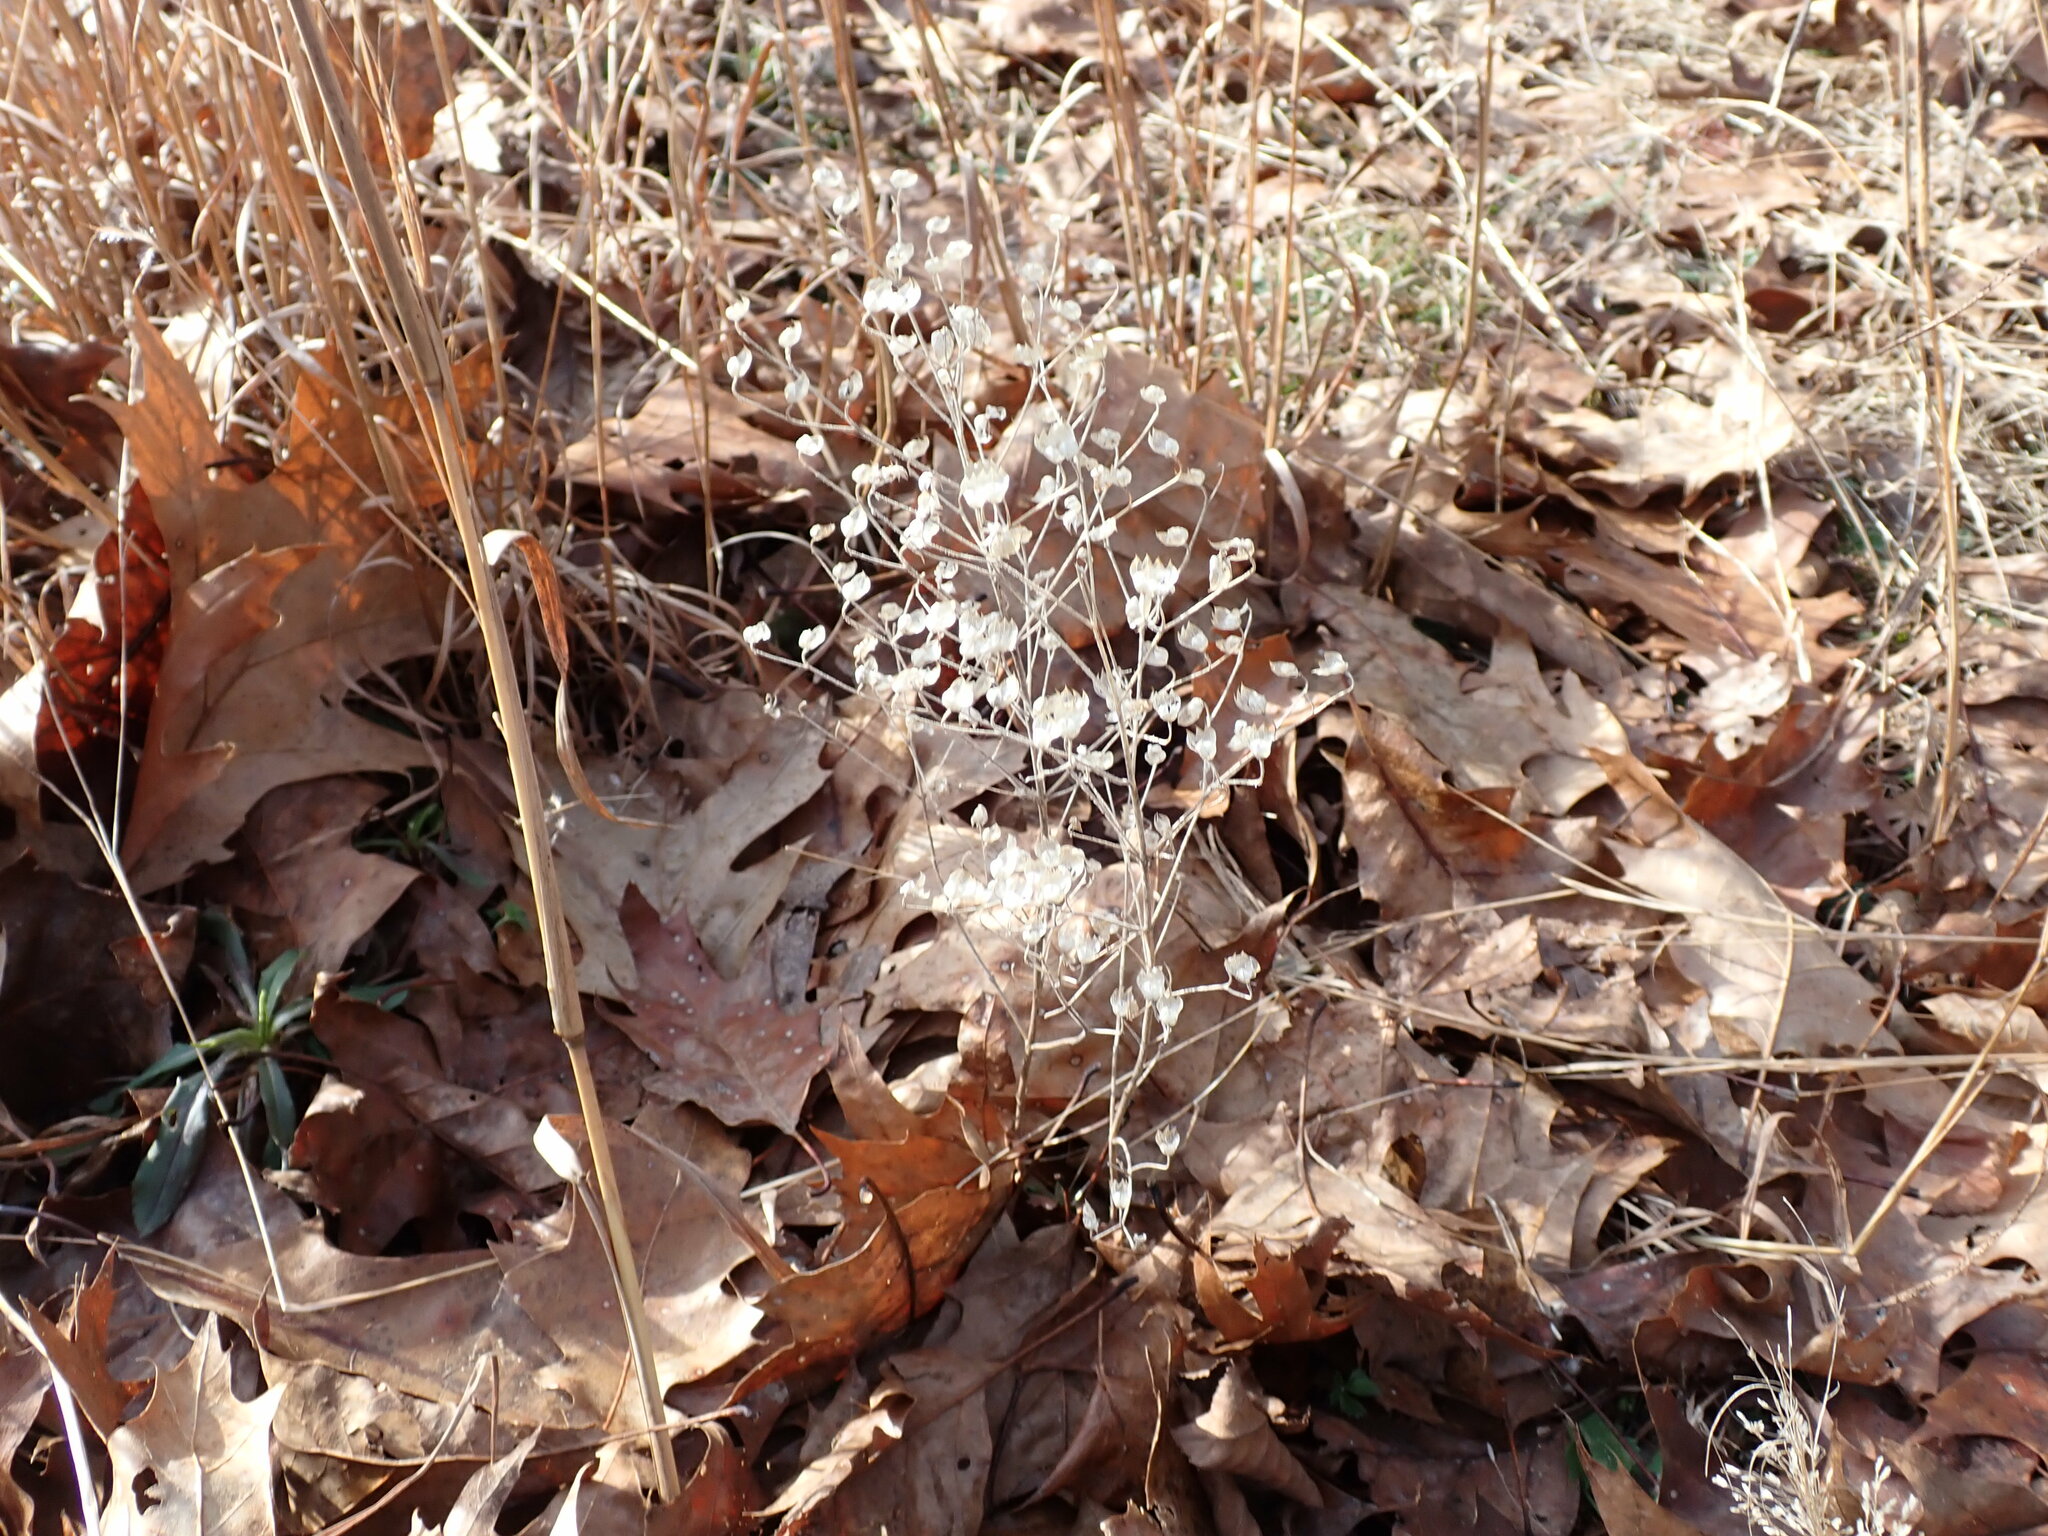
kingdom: Plantae
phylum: Tracheophyta
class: Magnoliopsida
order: Lamiales
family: Lamiaceae
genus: Trichostema
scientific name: Trichostema dichotomum
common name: Bastard pennyroyal
